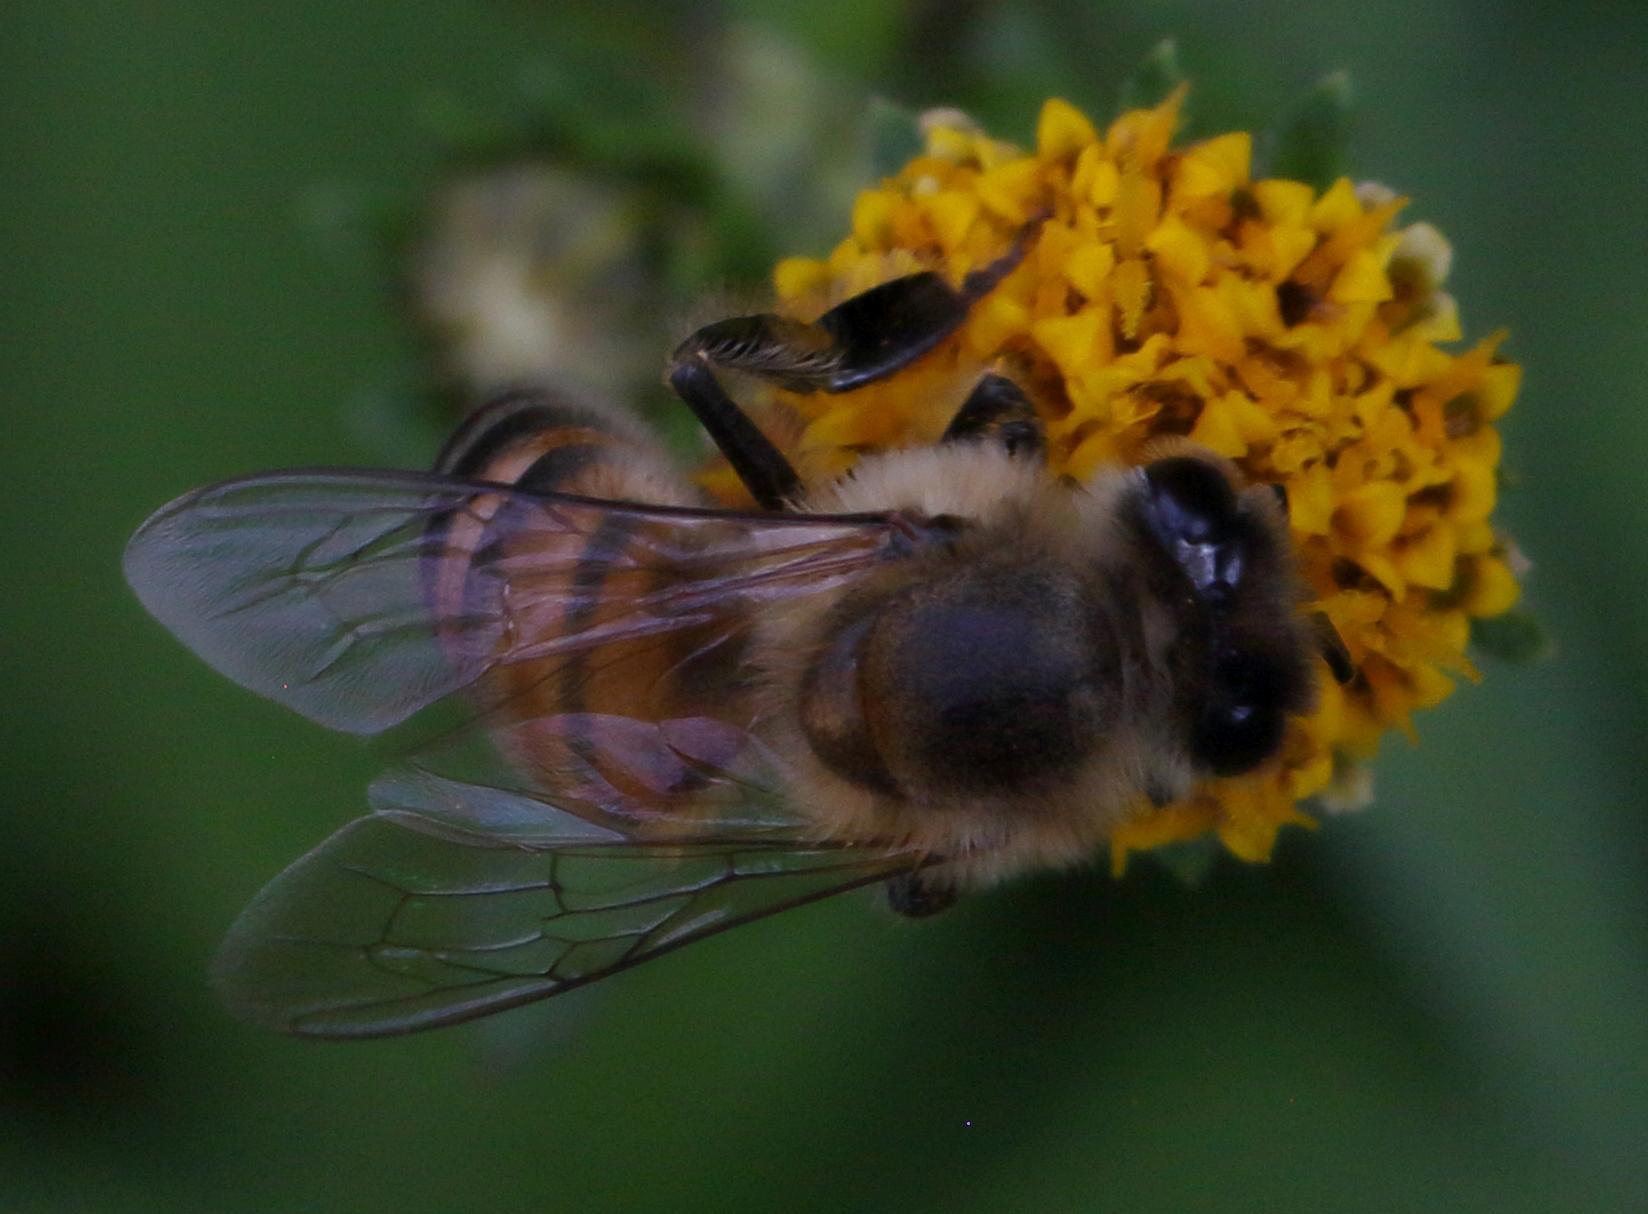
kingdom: Animalia
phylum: Arthropoda
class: Insecta
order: Hymenoptera
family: Apidae
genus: Apis
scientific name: Apis mellifera
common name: Honey bee
